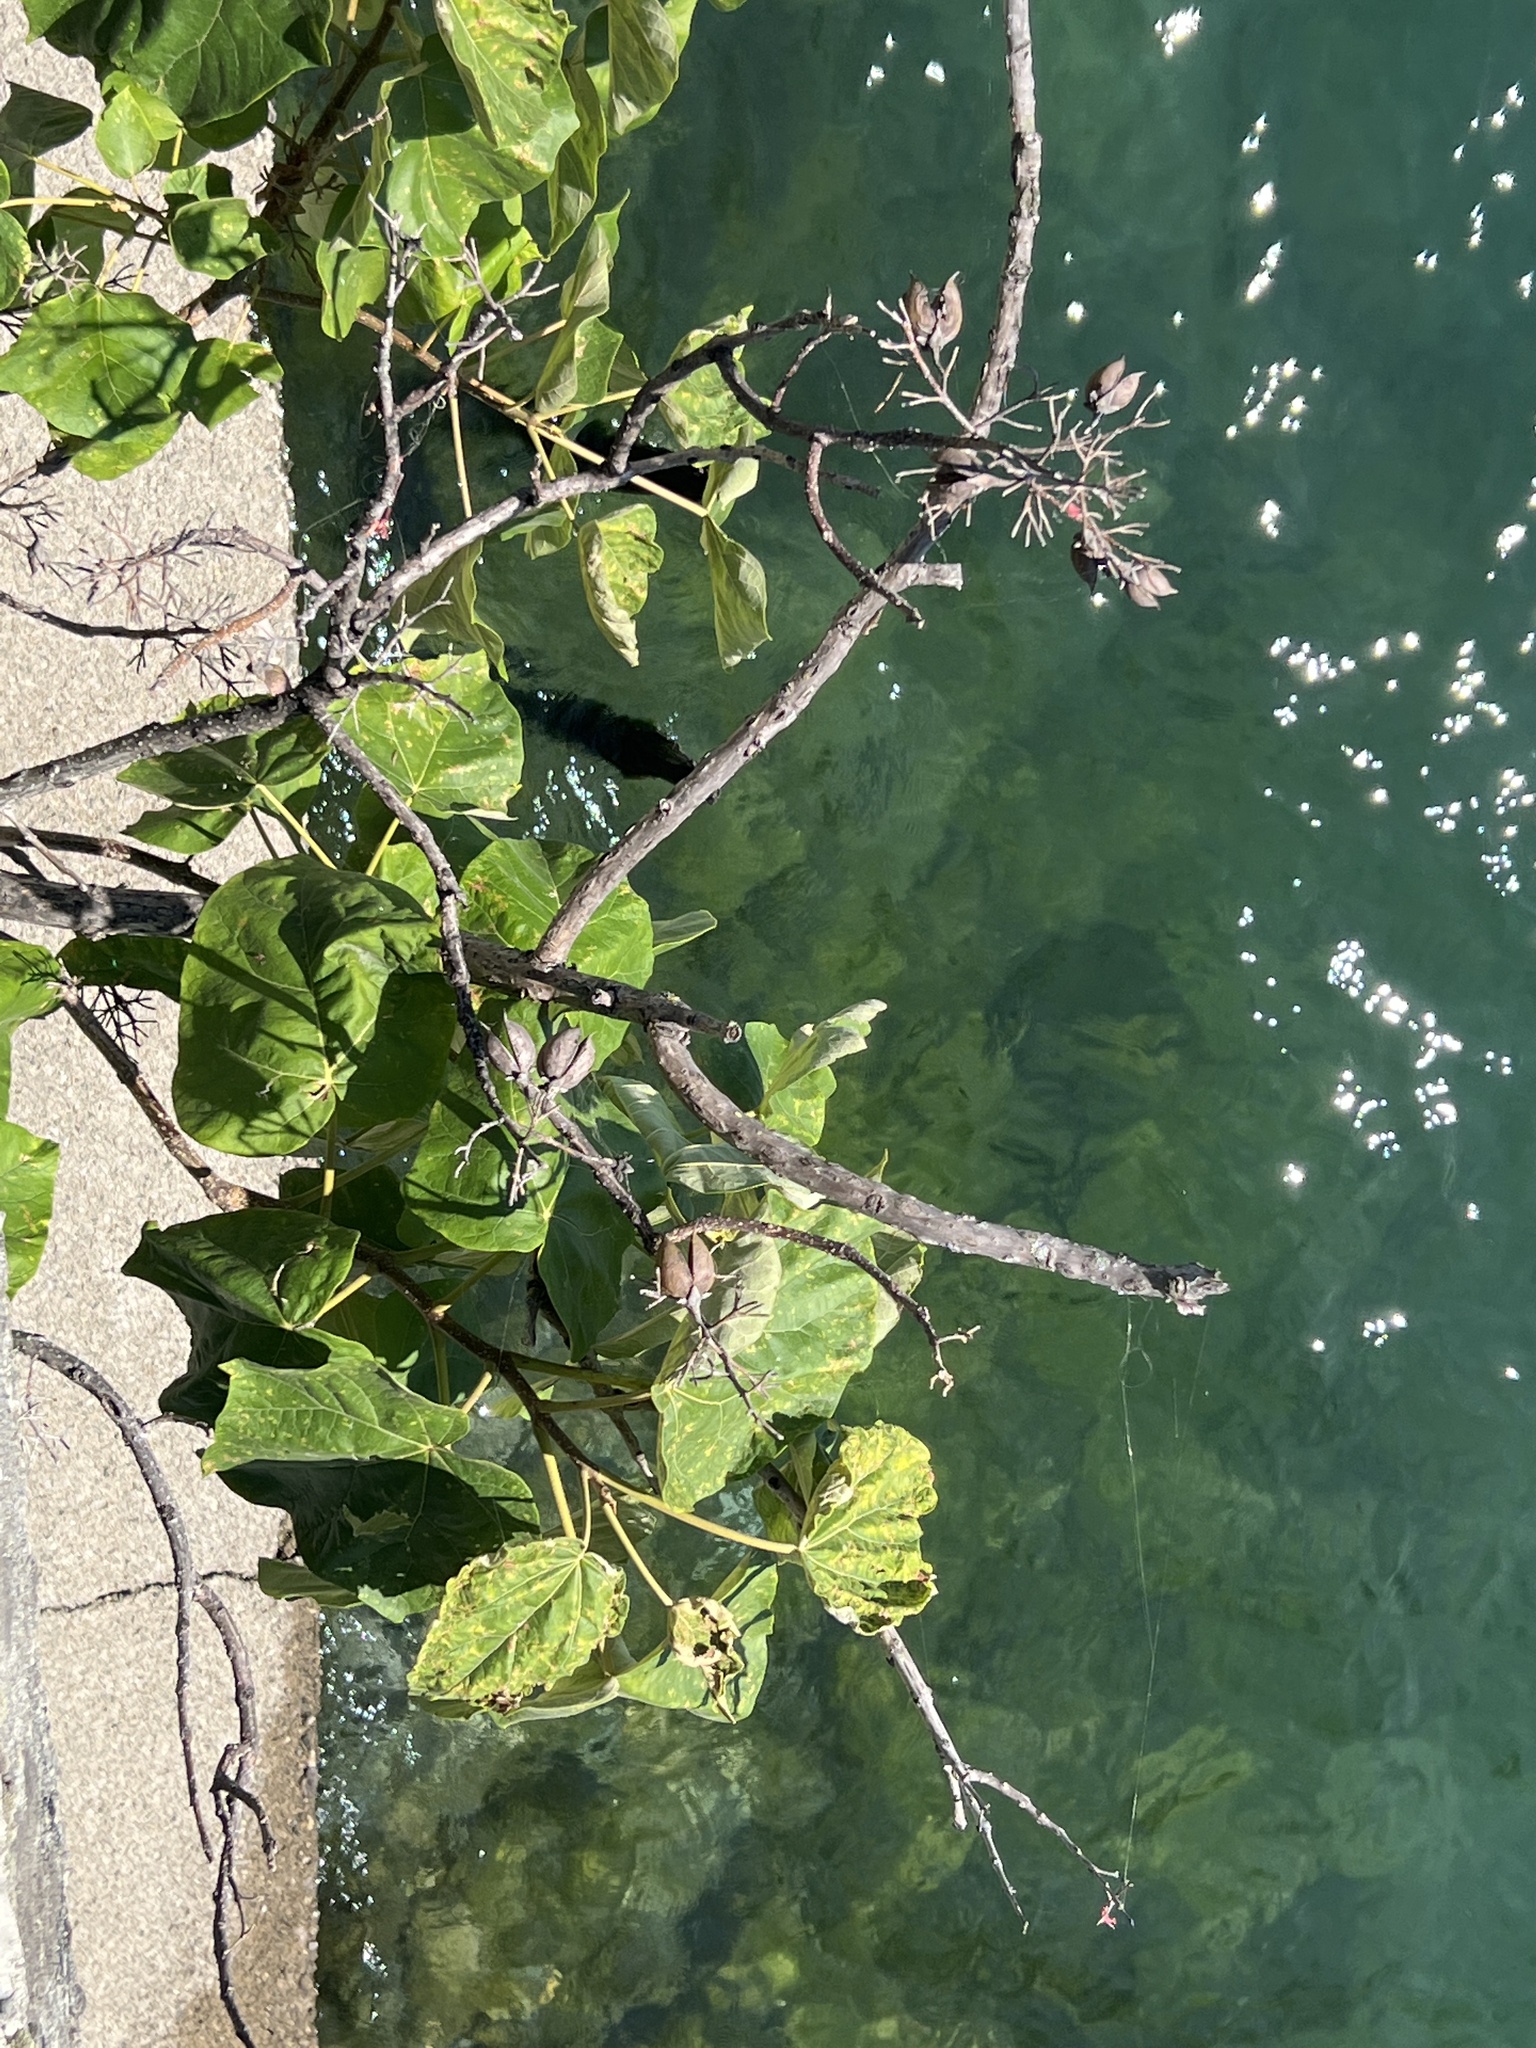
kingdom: Plantae
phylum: Tracheophyta
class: Magnoliopsida
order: Lamiales
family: Paulowniaceae
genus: Paulownia
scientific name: Paulownia tomentosa
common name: Foxglove-tree
